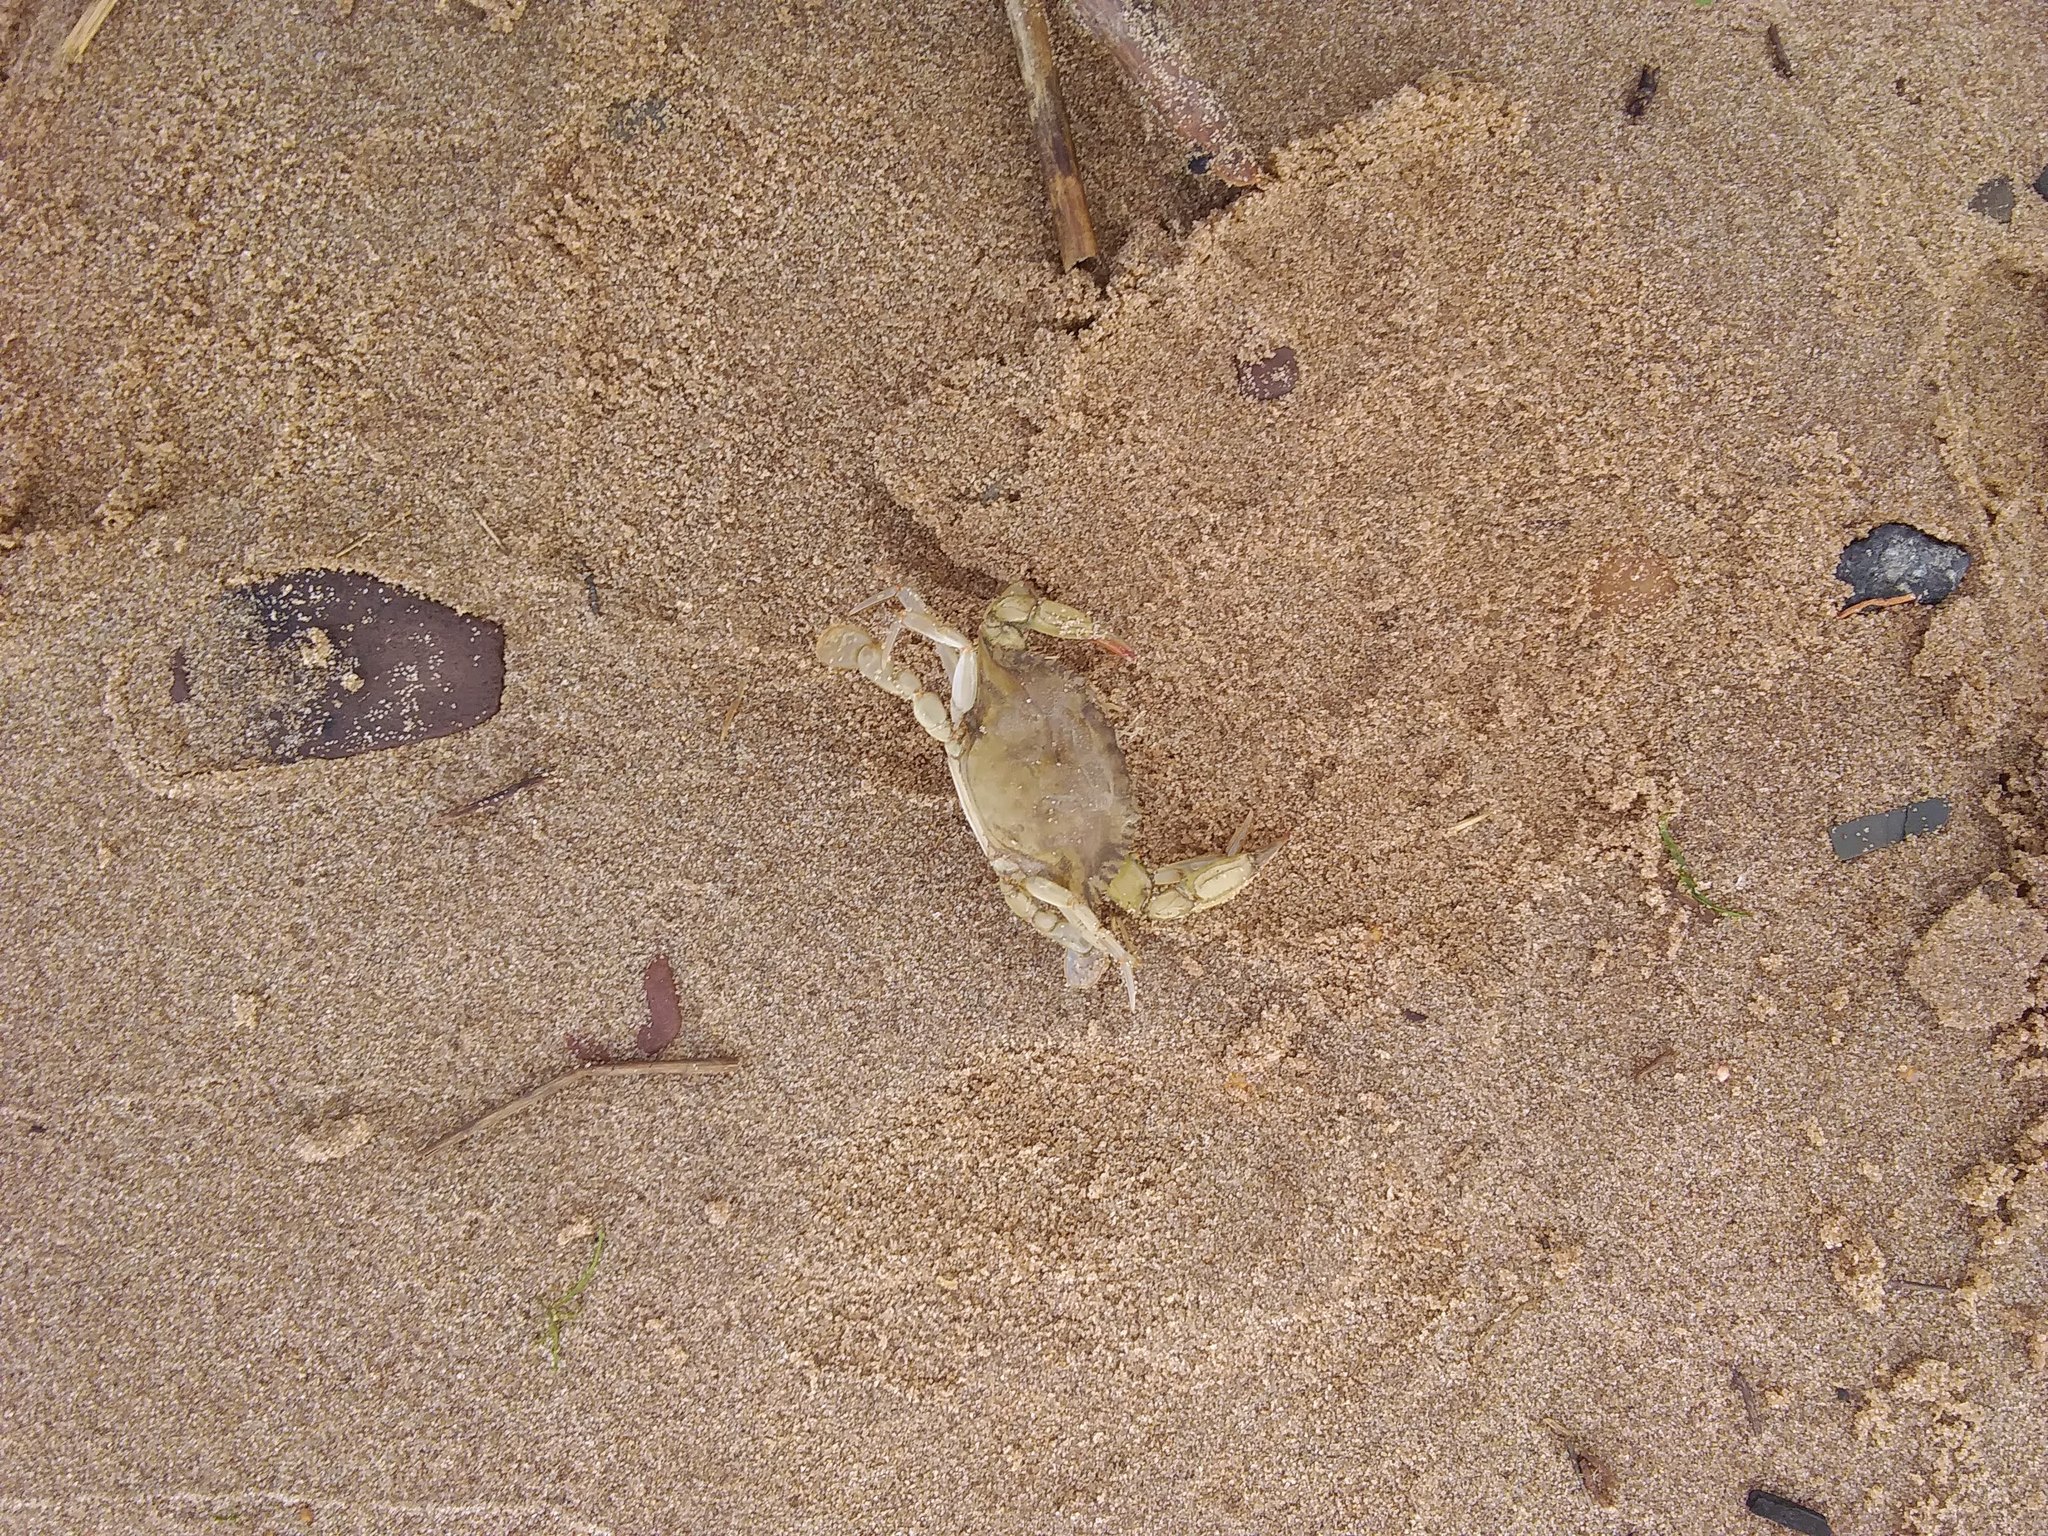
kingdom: Animalia
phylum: Arthropoda
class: Malacostraca
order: Decapoda
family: Portunidae
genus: Callinectes
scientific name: Callinectes sapidus
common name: Blue crab
